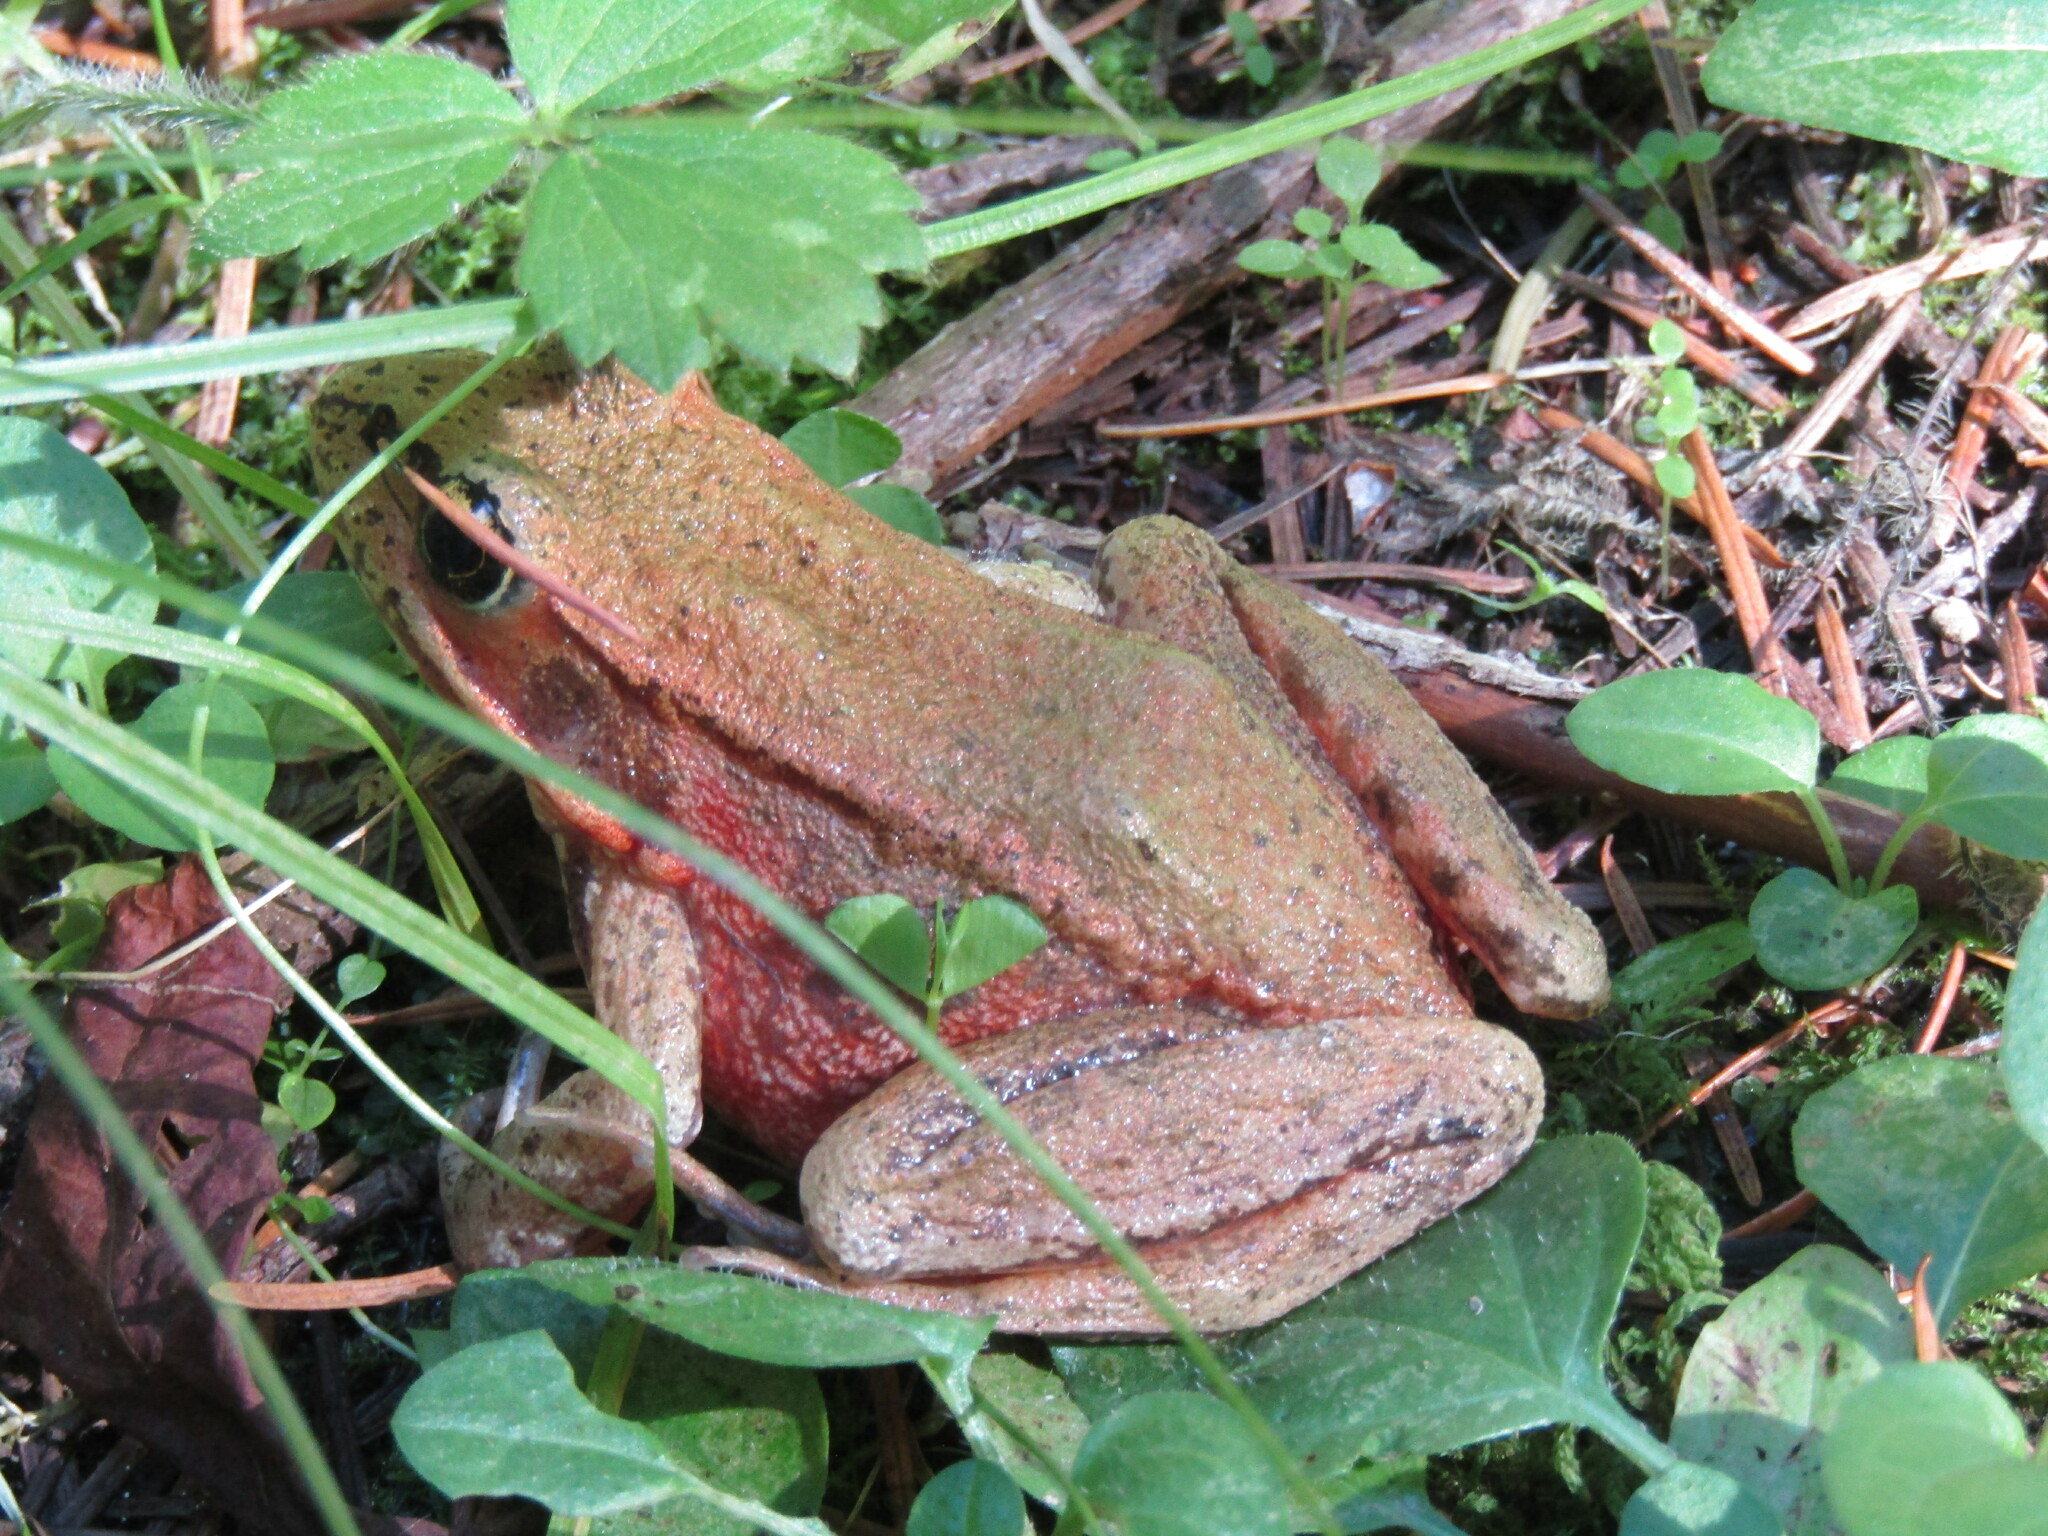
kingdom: Animalia
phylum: Chordata
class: Amphibia
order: Anura
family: Ranidae
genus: Rana
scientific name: Rana aurora
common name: Red-legged frog
